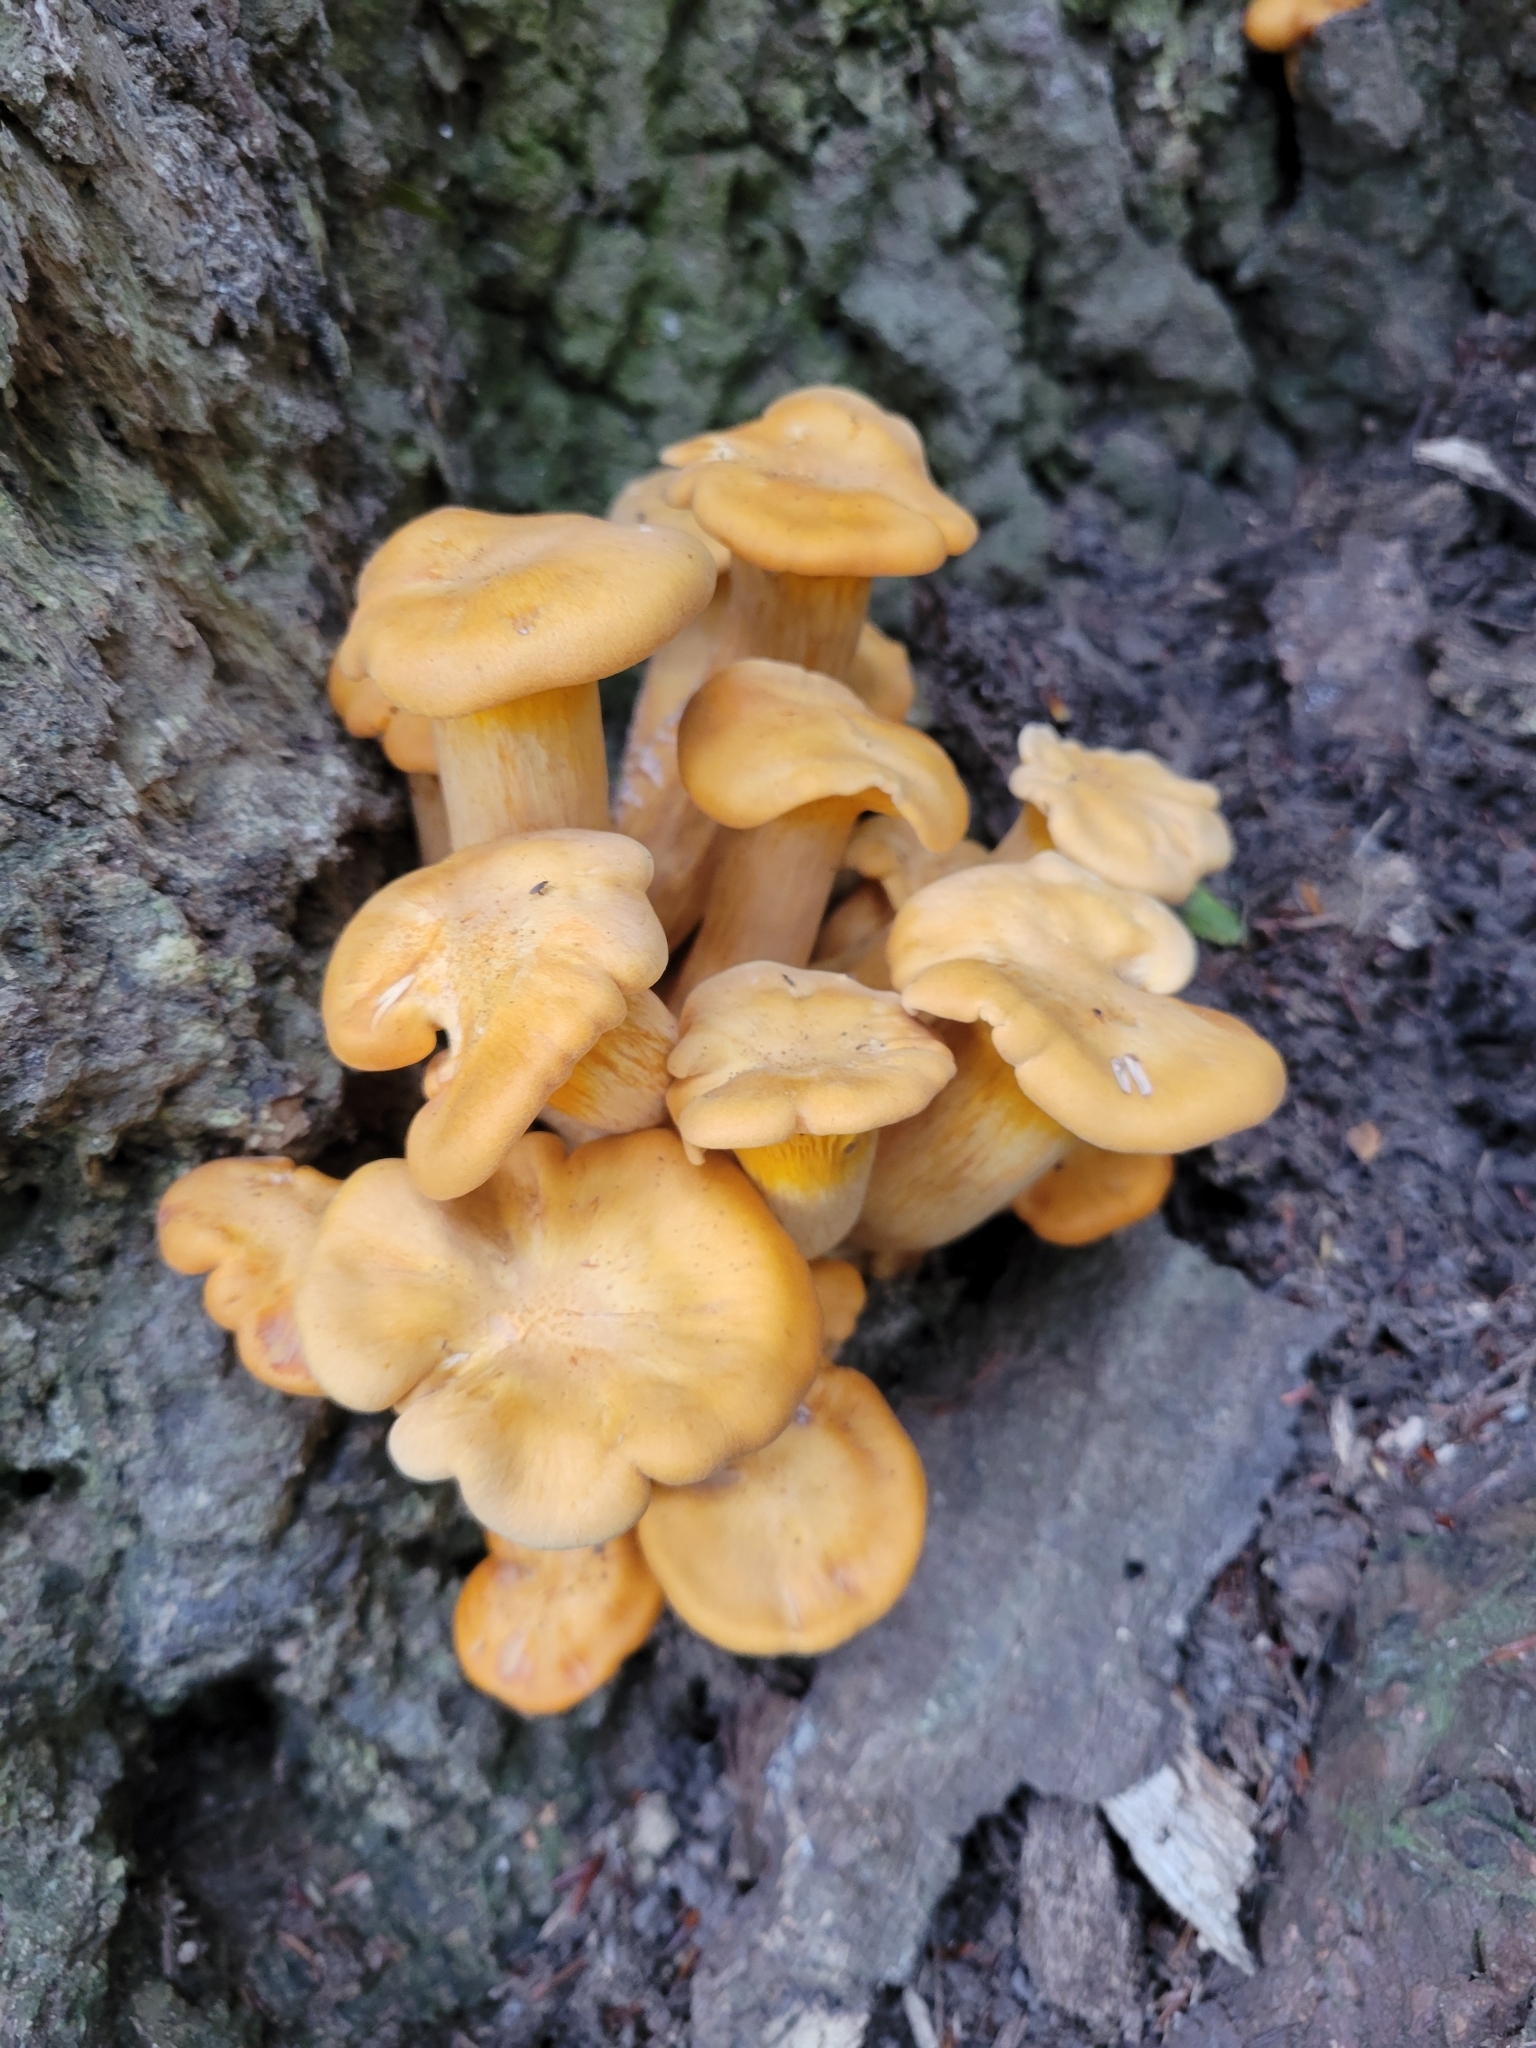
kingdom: Fungi
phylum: Basidiomycota
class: Agaricomycetes
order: Agaricales
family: Omphalotaceae
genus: Omphalotus
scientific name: Omphalotus illudens
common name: Jack o lantern
